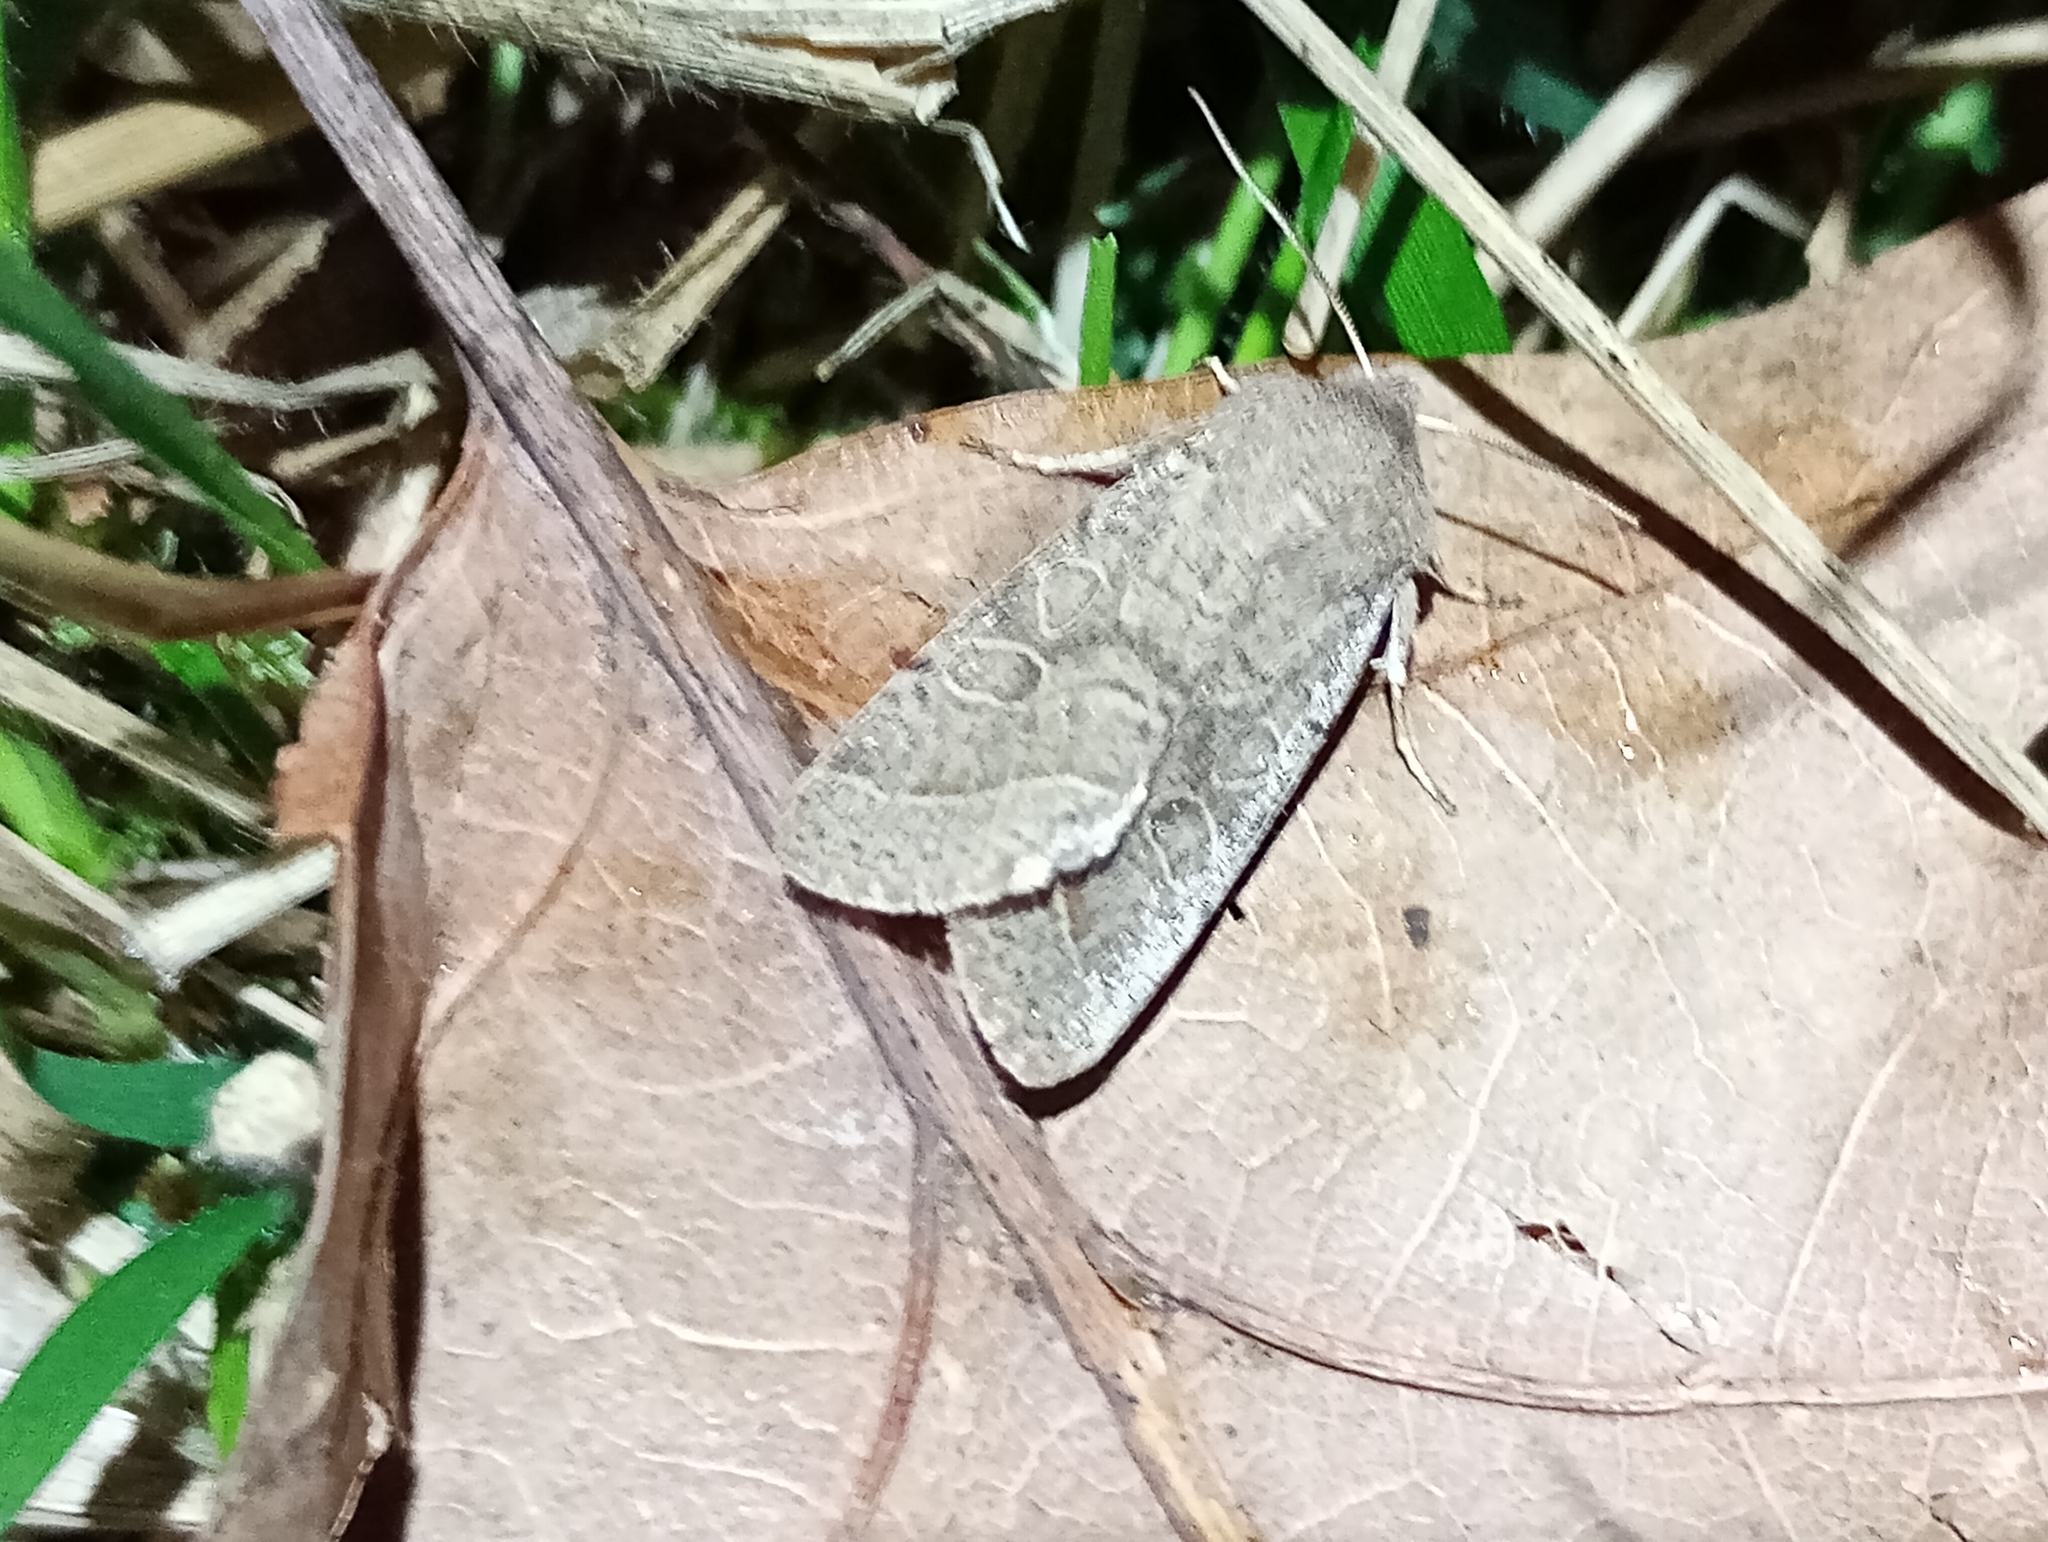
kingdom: Animalia
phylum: Arthropoda
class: Insecta
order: Lepidoptera
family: Noctuidae
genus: Orthosia
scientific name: Orthosia cerasi
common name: Common quaker
